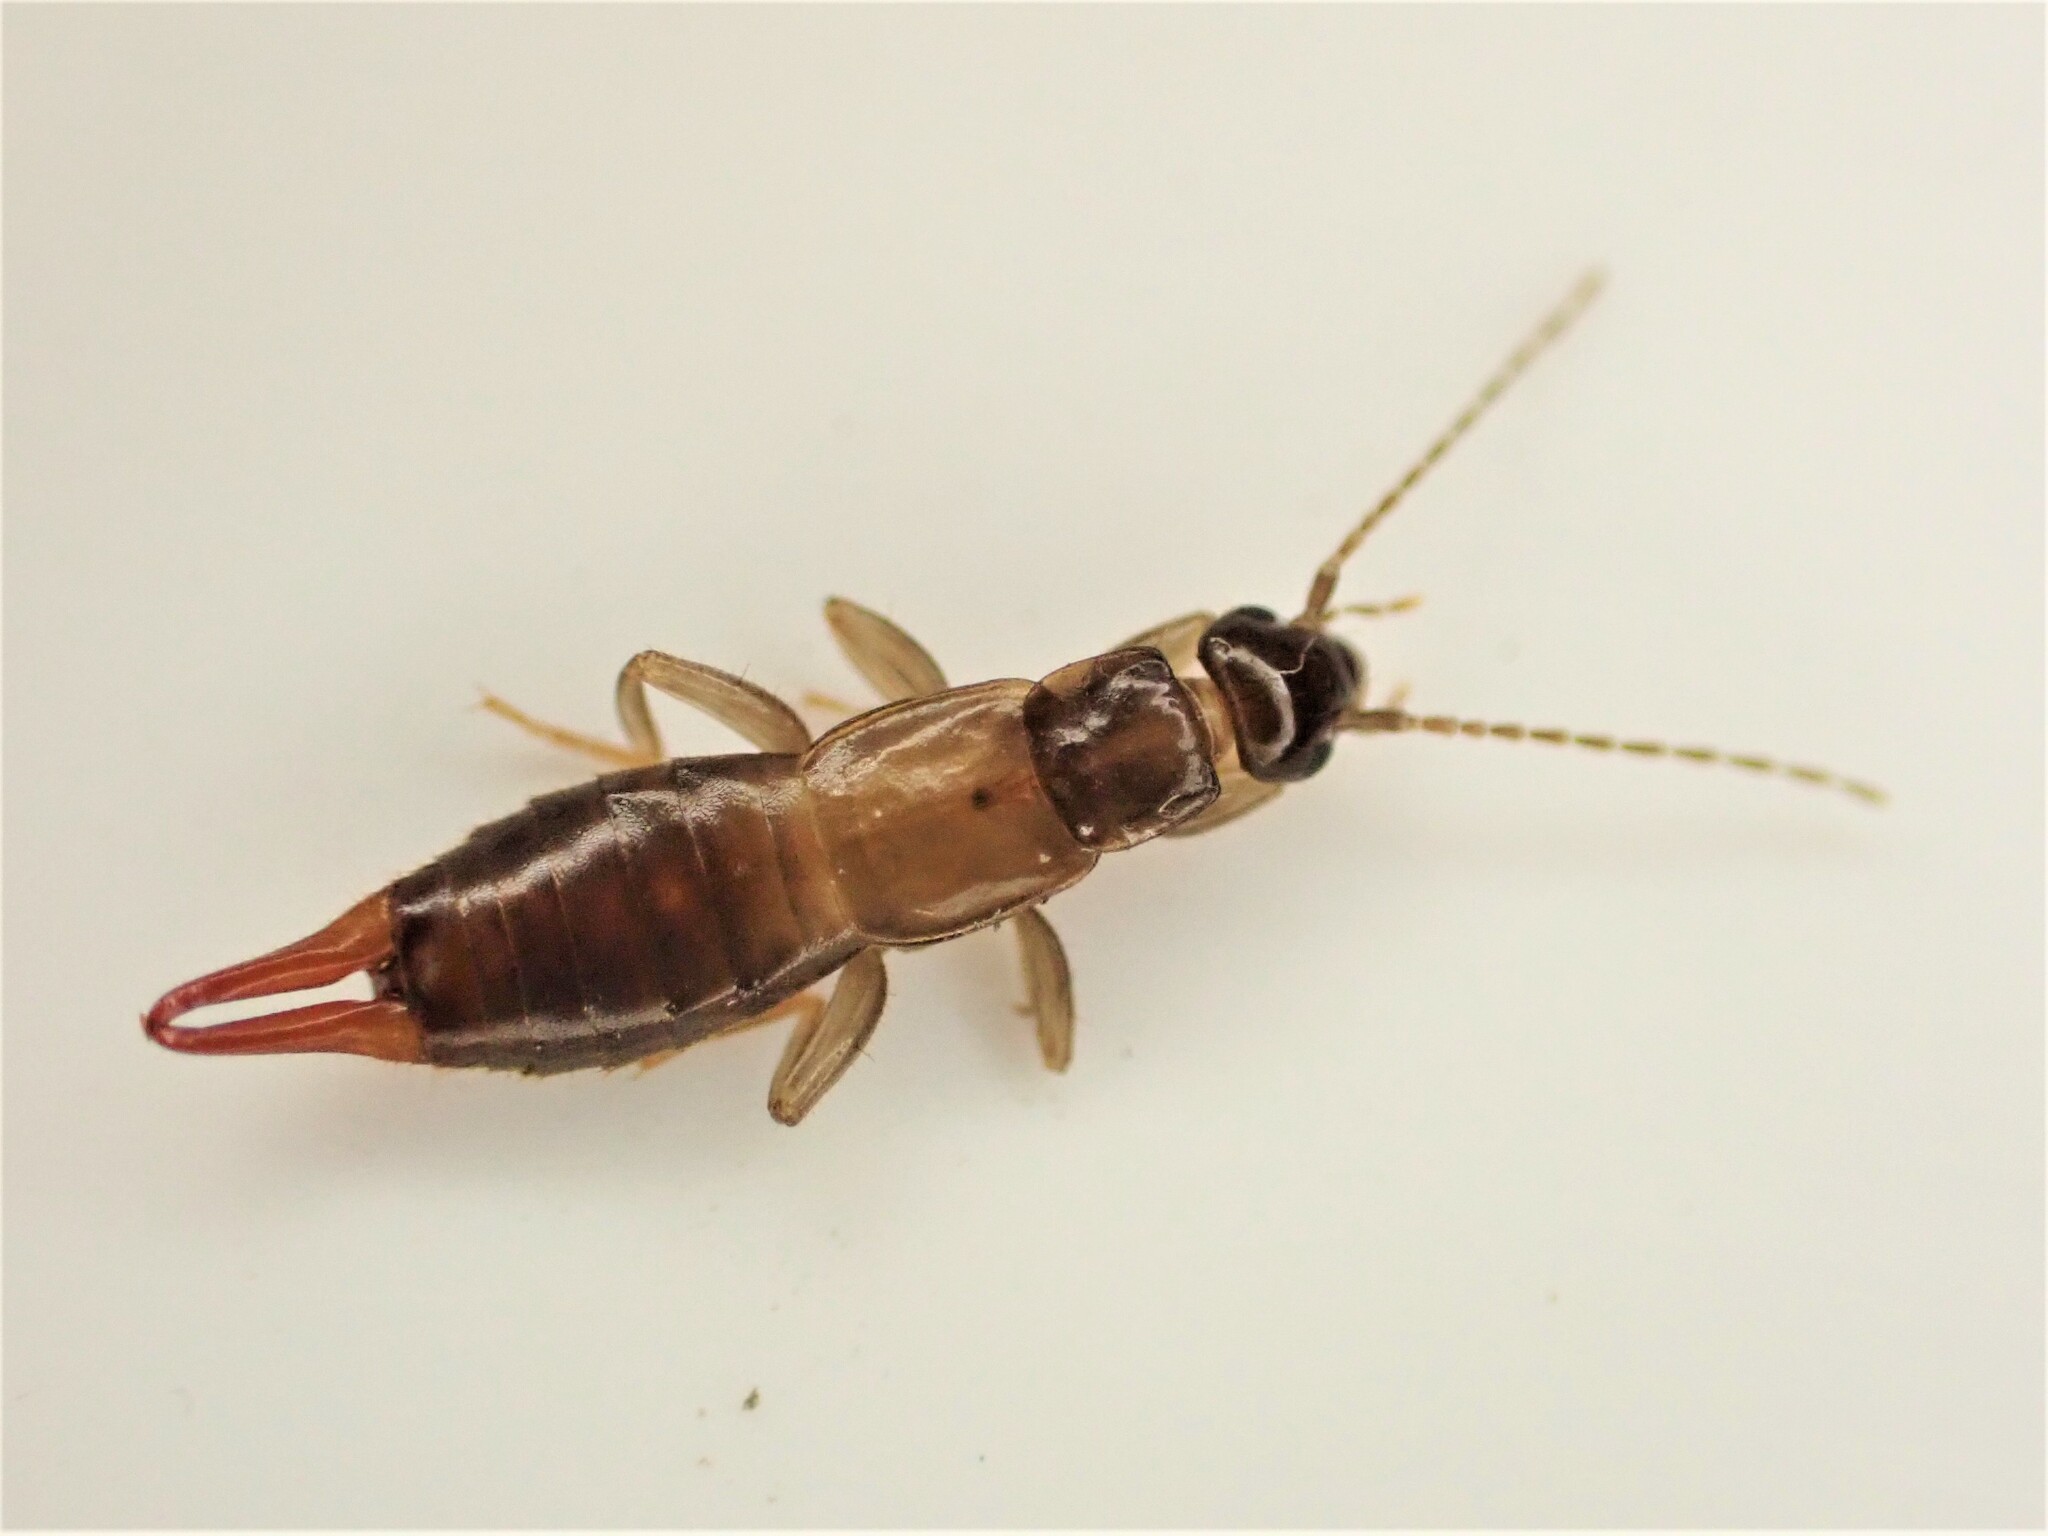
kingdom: Animalia
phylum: Arthropoda
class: Insecta
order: Dermaptera
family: Spongiphoridae
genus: Nesogaster
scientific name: Nesogaster halli
